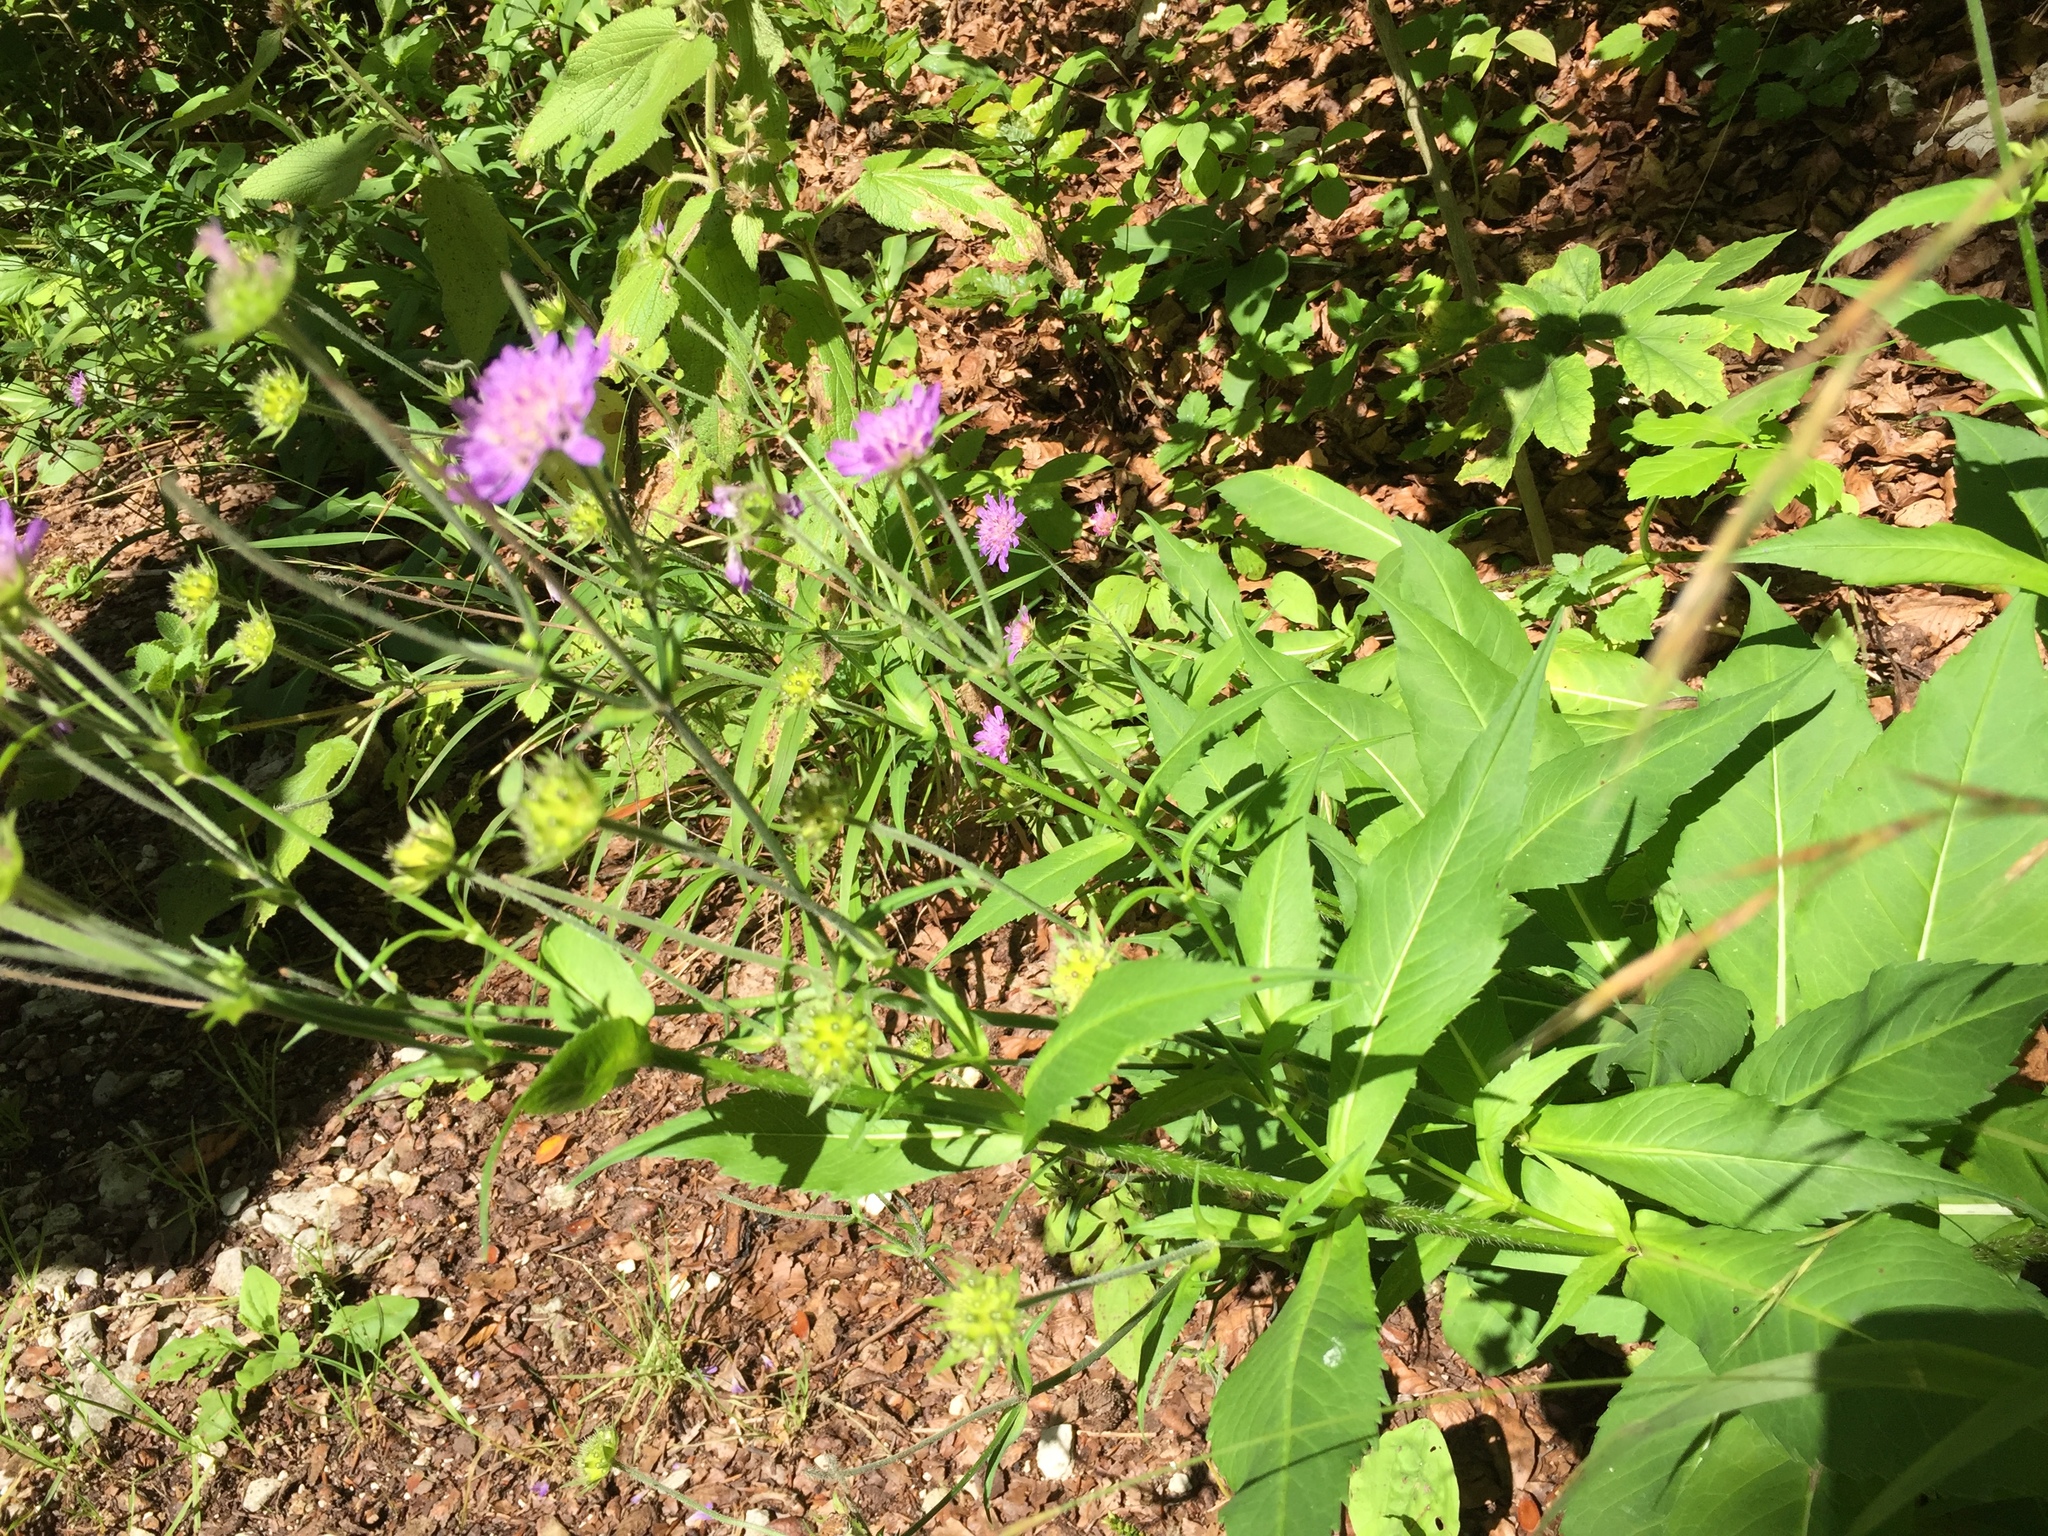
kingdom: Plantae
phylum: Tracheophyta
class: Magnoliopsida
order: Dipsacales
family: Caprifoliaceae
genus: Knautia
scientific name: Knautia dipsacifolia
